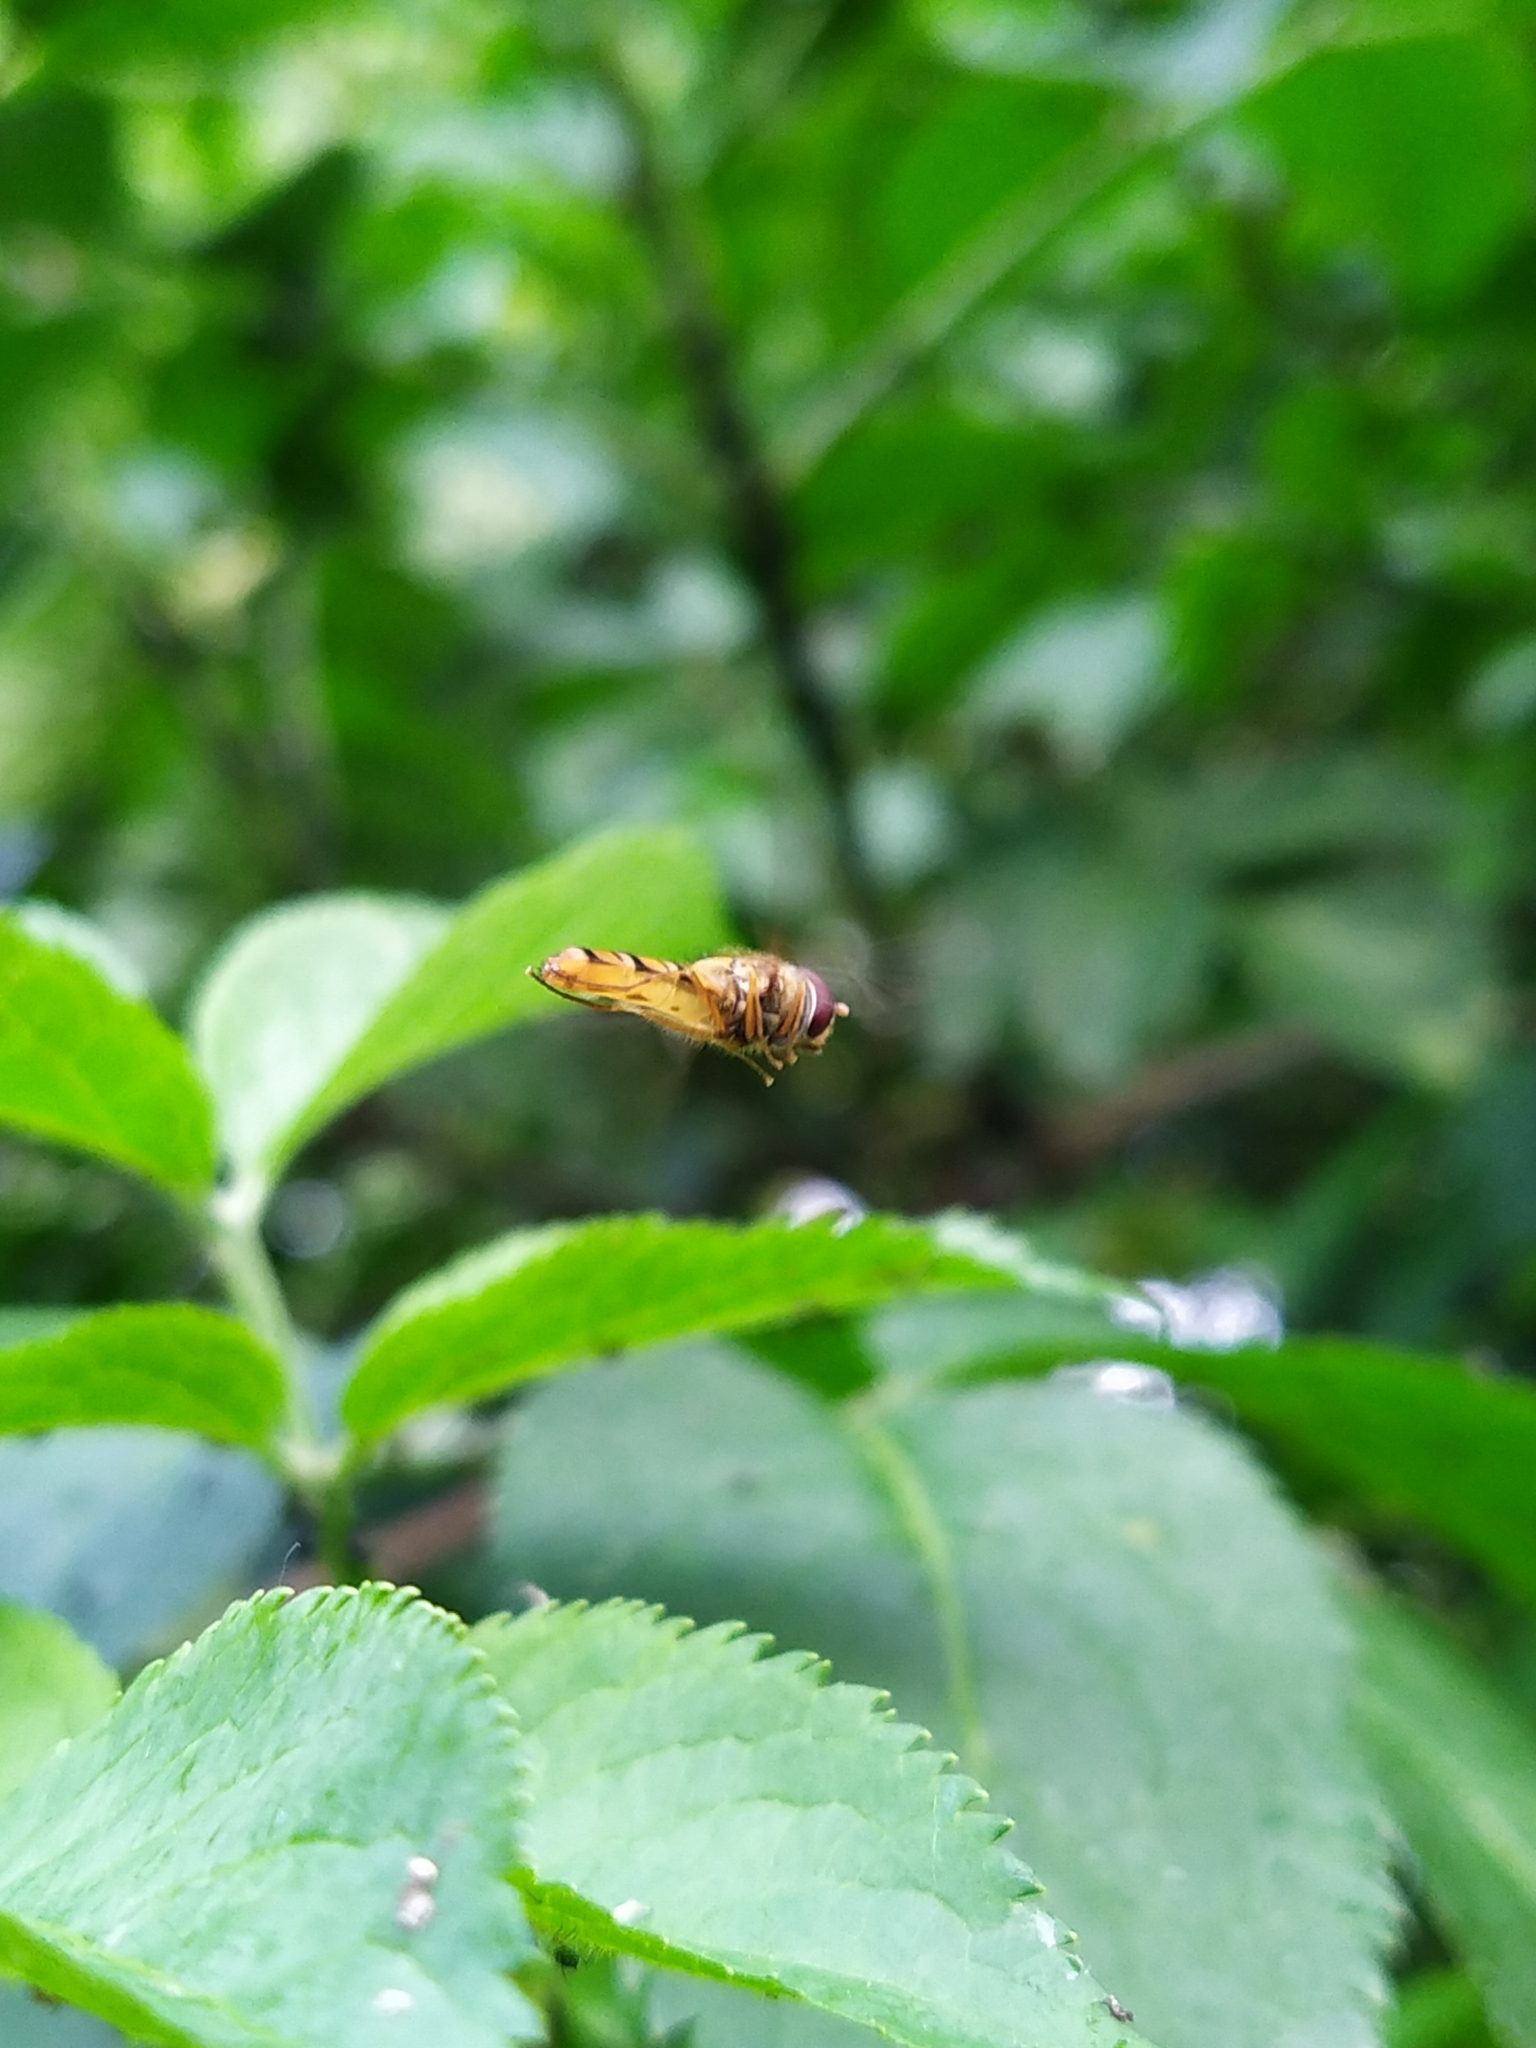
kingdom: Animalia
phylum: Arthropoda
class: Insecta
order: Diptera
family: Syrphidae
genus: Episyrphus
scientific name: Episyrphus balteatus
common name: Marmalade hoverfly
